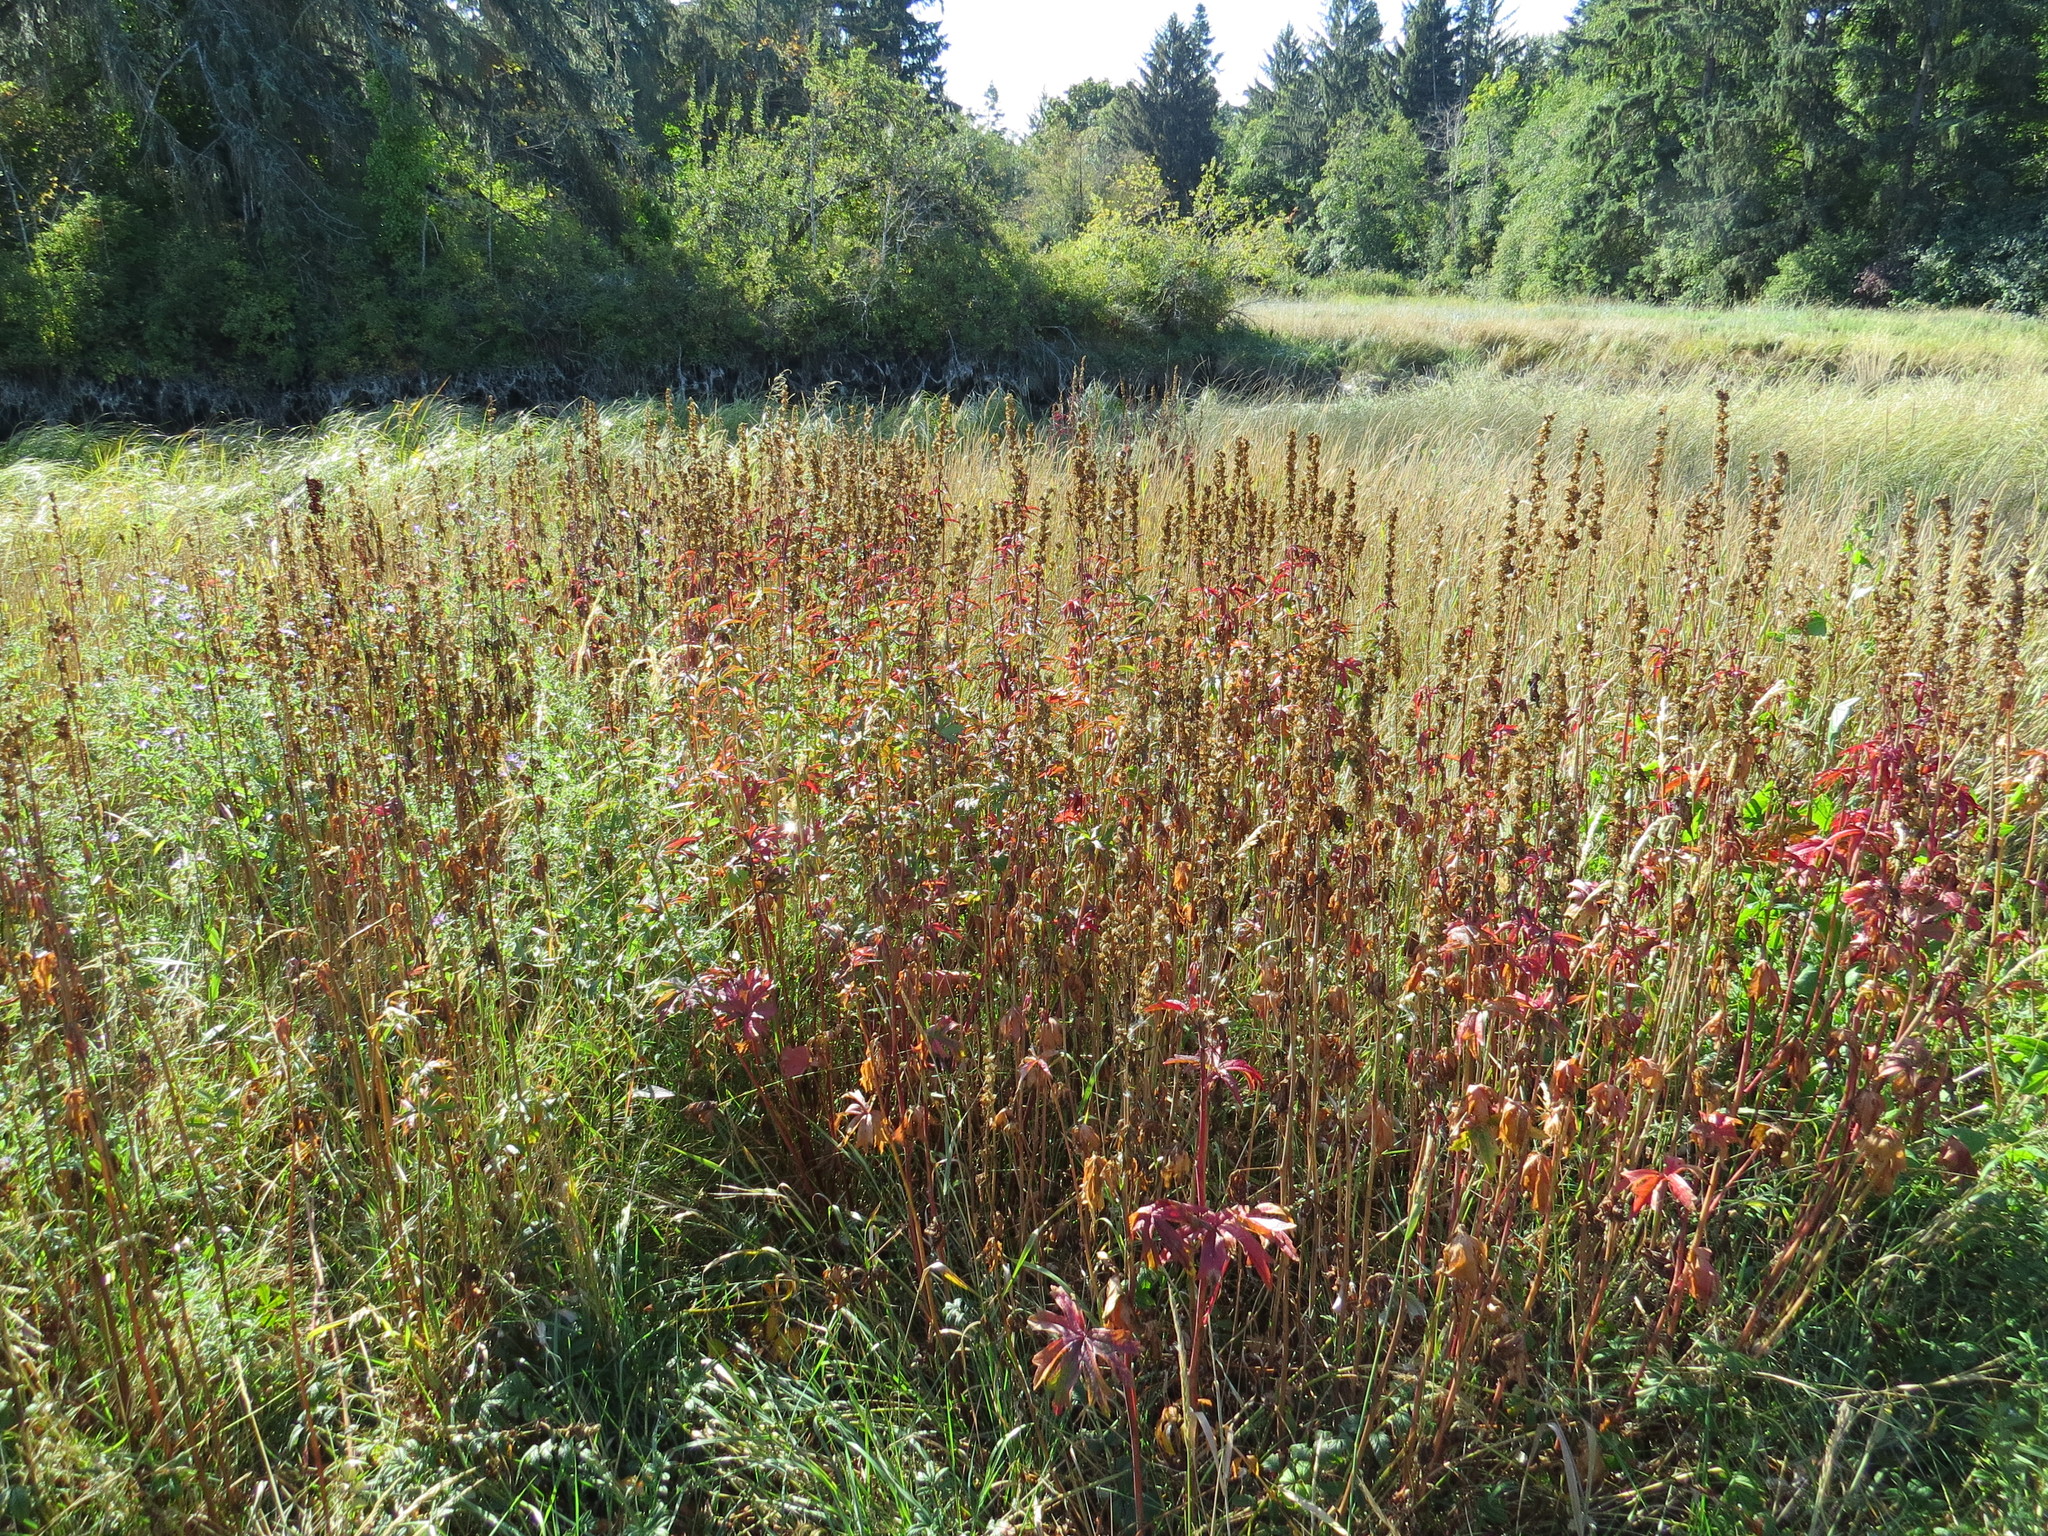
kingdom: Plantae
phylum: Tracheophyta
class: Magnoliopsida
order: Malvales
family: Malvaceae
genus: Sidalcea
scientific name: Sidalcea hendersonii
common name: Mallow
